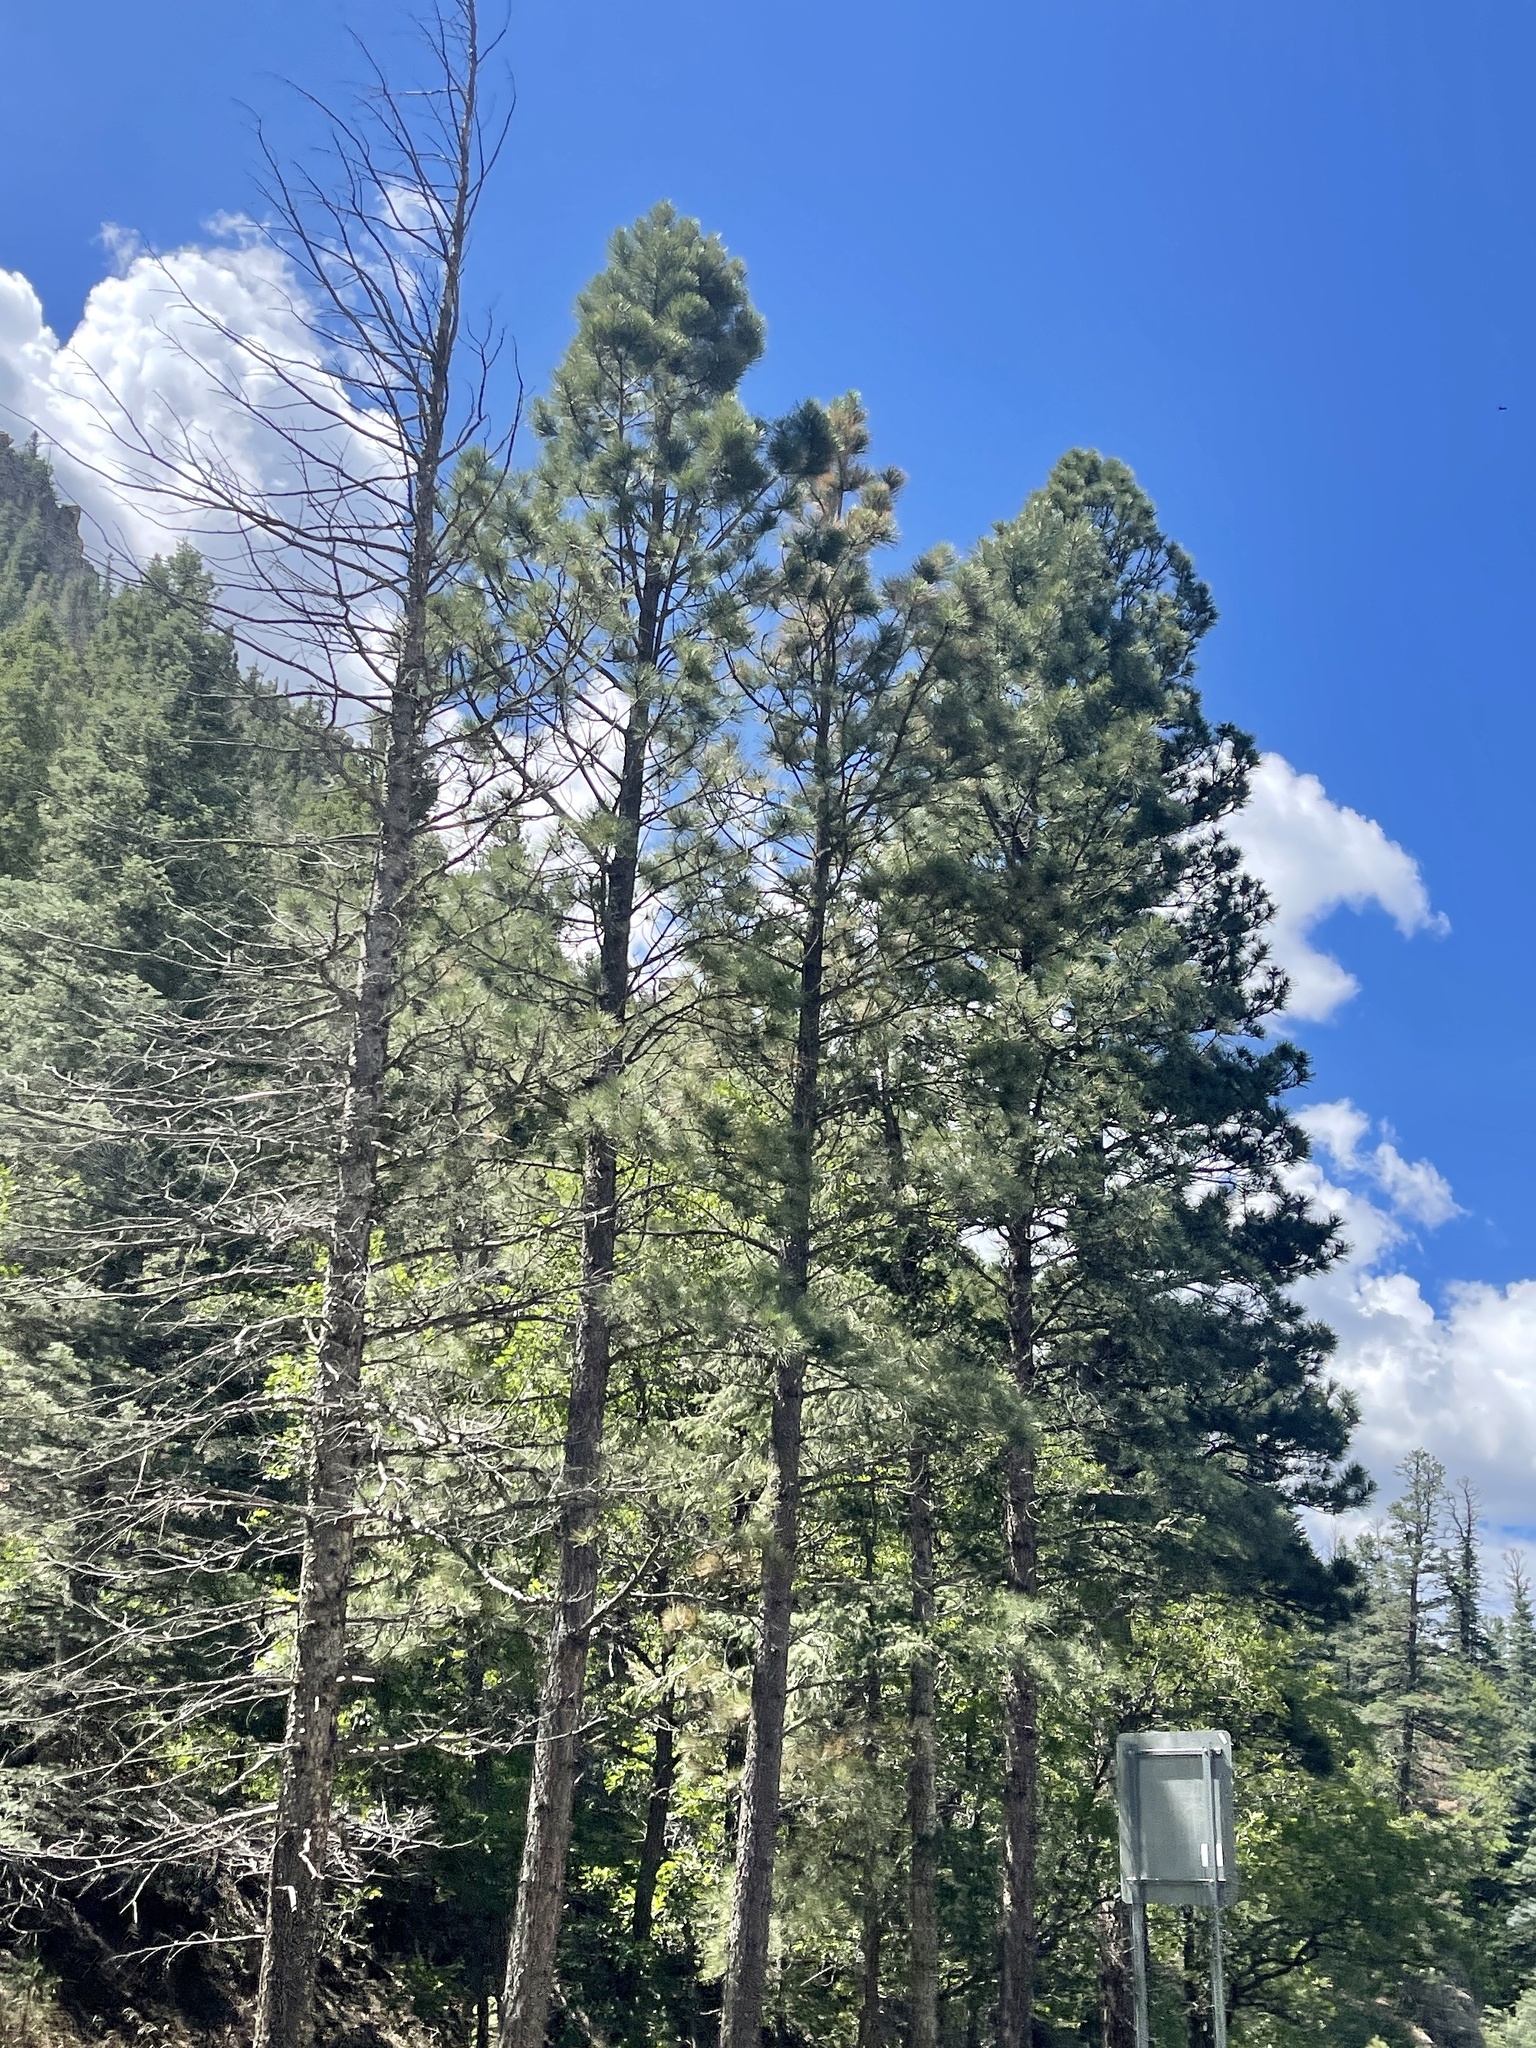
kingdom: Plantae
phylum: Tracheophyta
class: Pinopsida
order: Pinales
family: Pinaceae
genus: Pinus
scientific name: Pinus ponderosa
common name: Western yellow-pine
